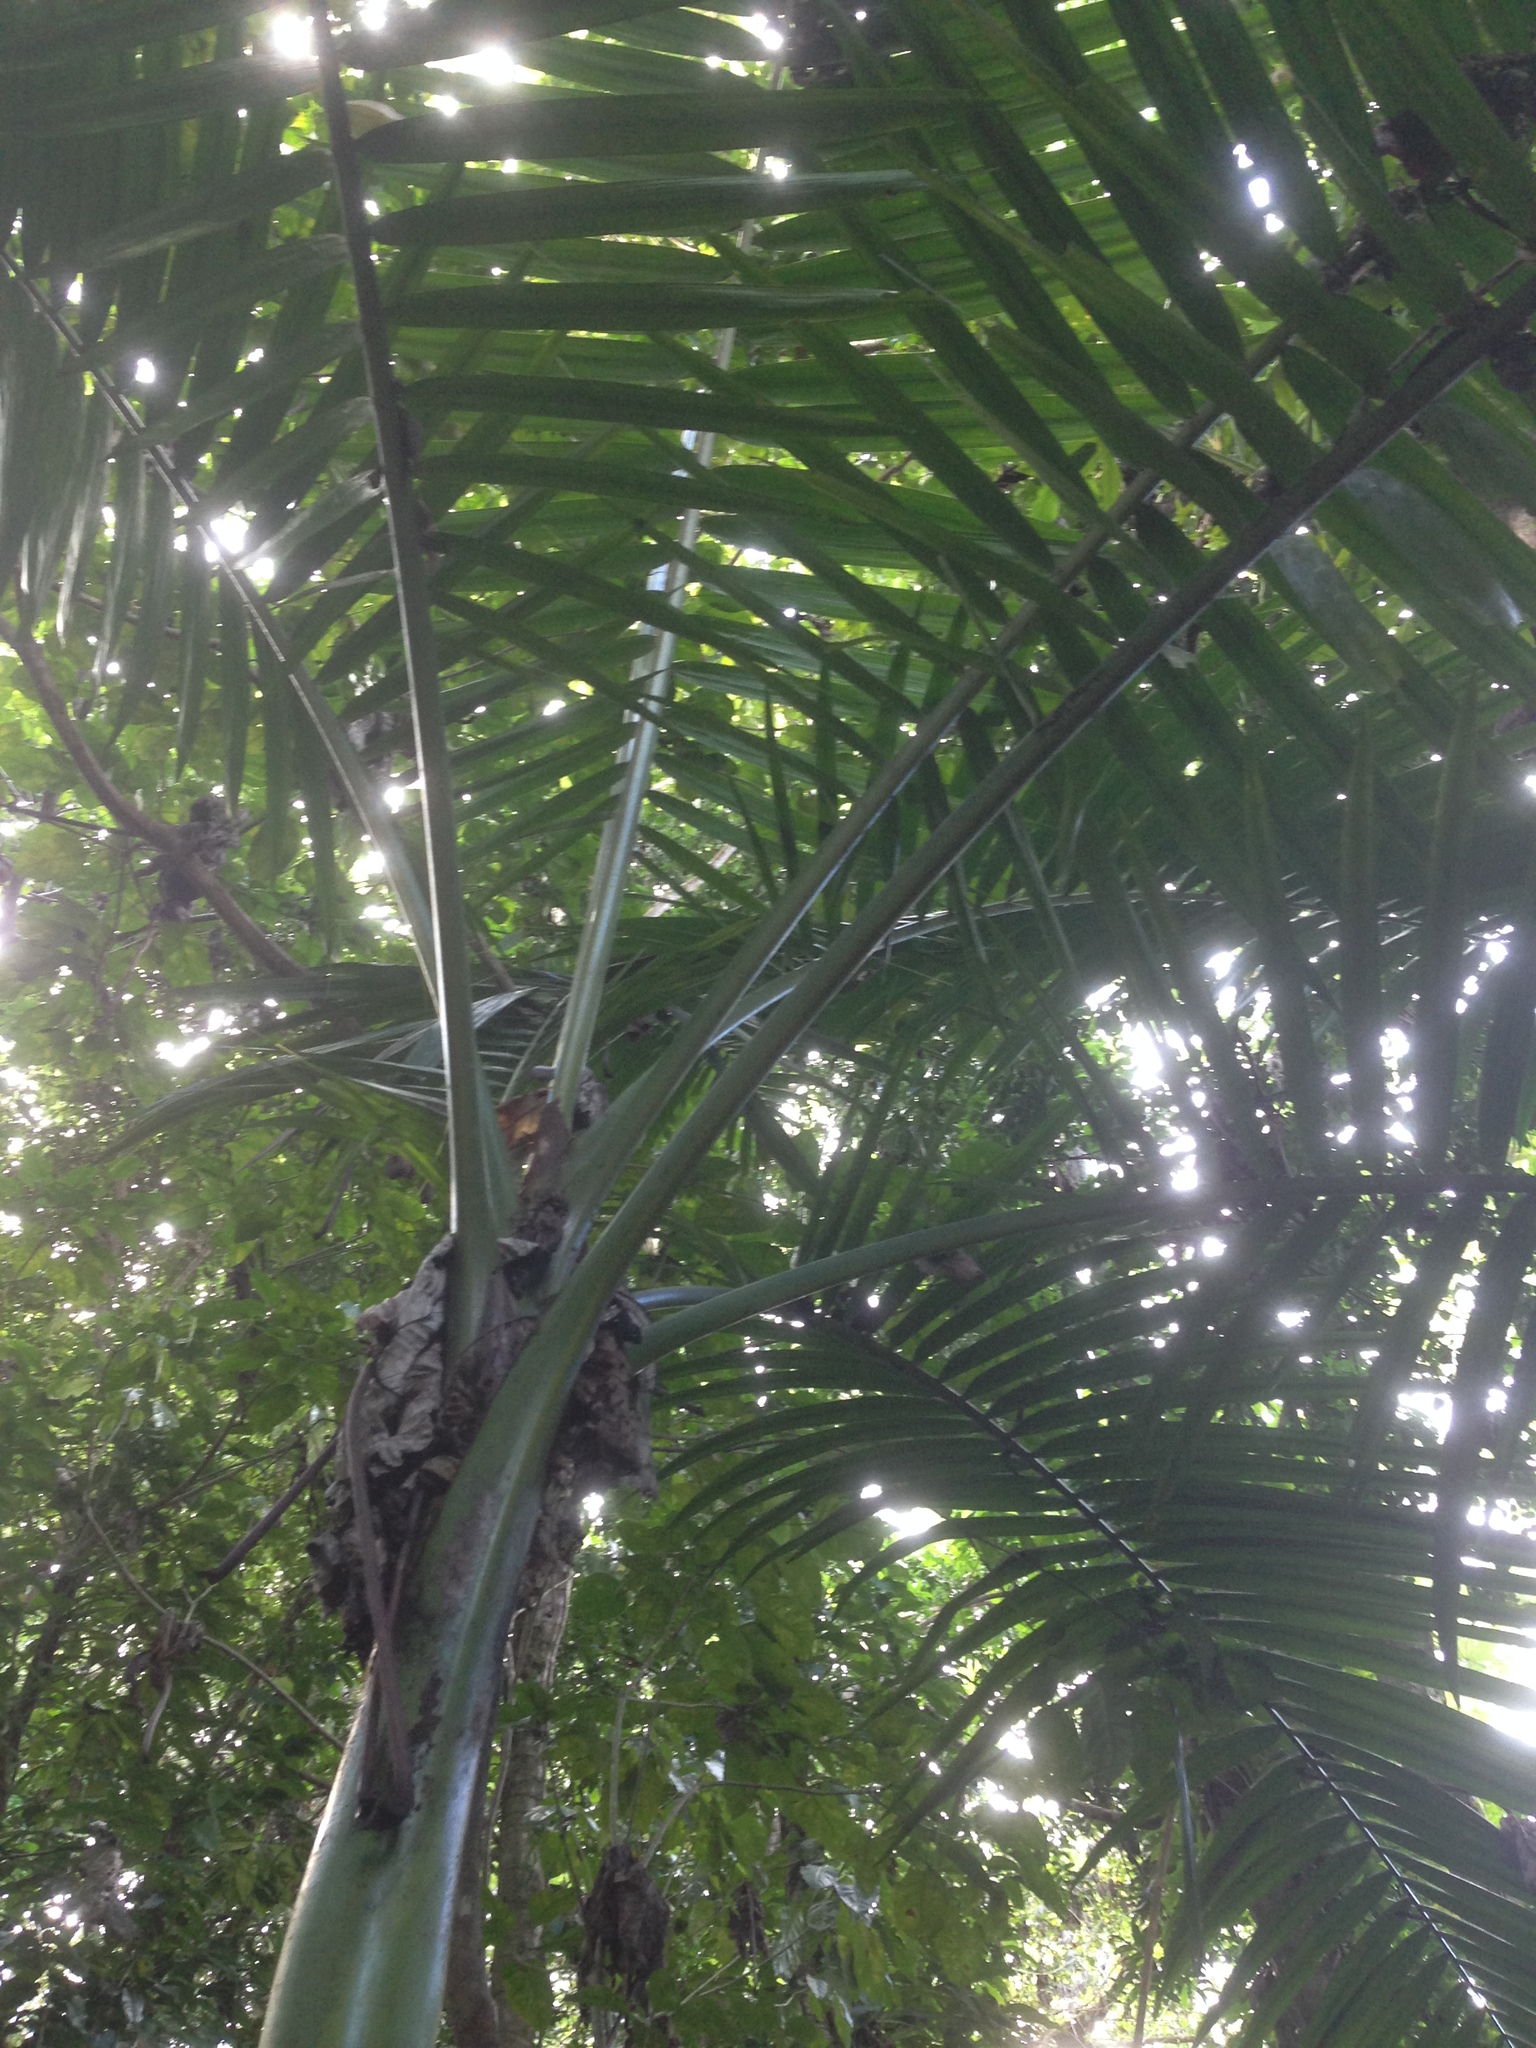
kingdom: Plantae
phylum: Tracheophyta
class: Liliopsida
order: Arecales
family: Arecaceae
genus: Prestoea
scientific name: Prestoea acuminata
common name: Sierran palm
